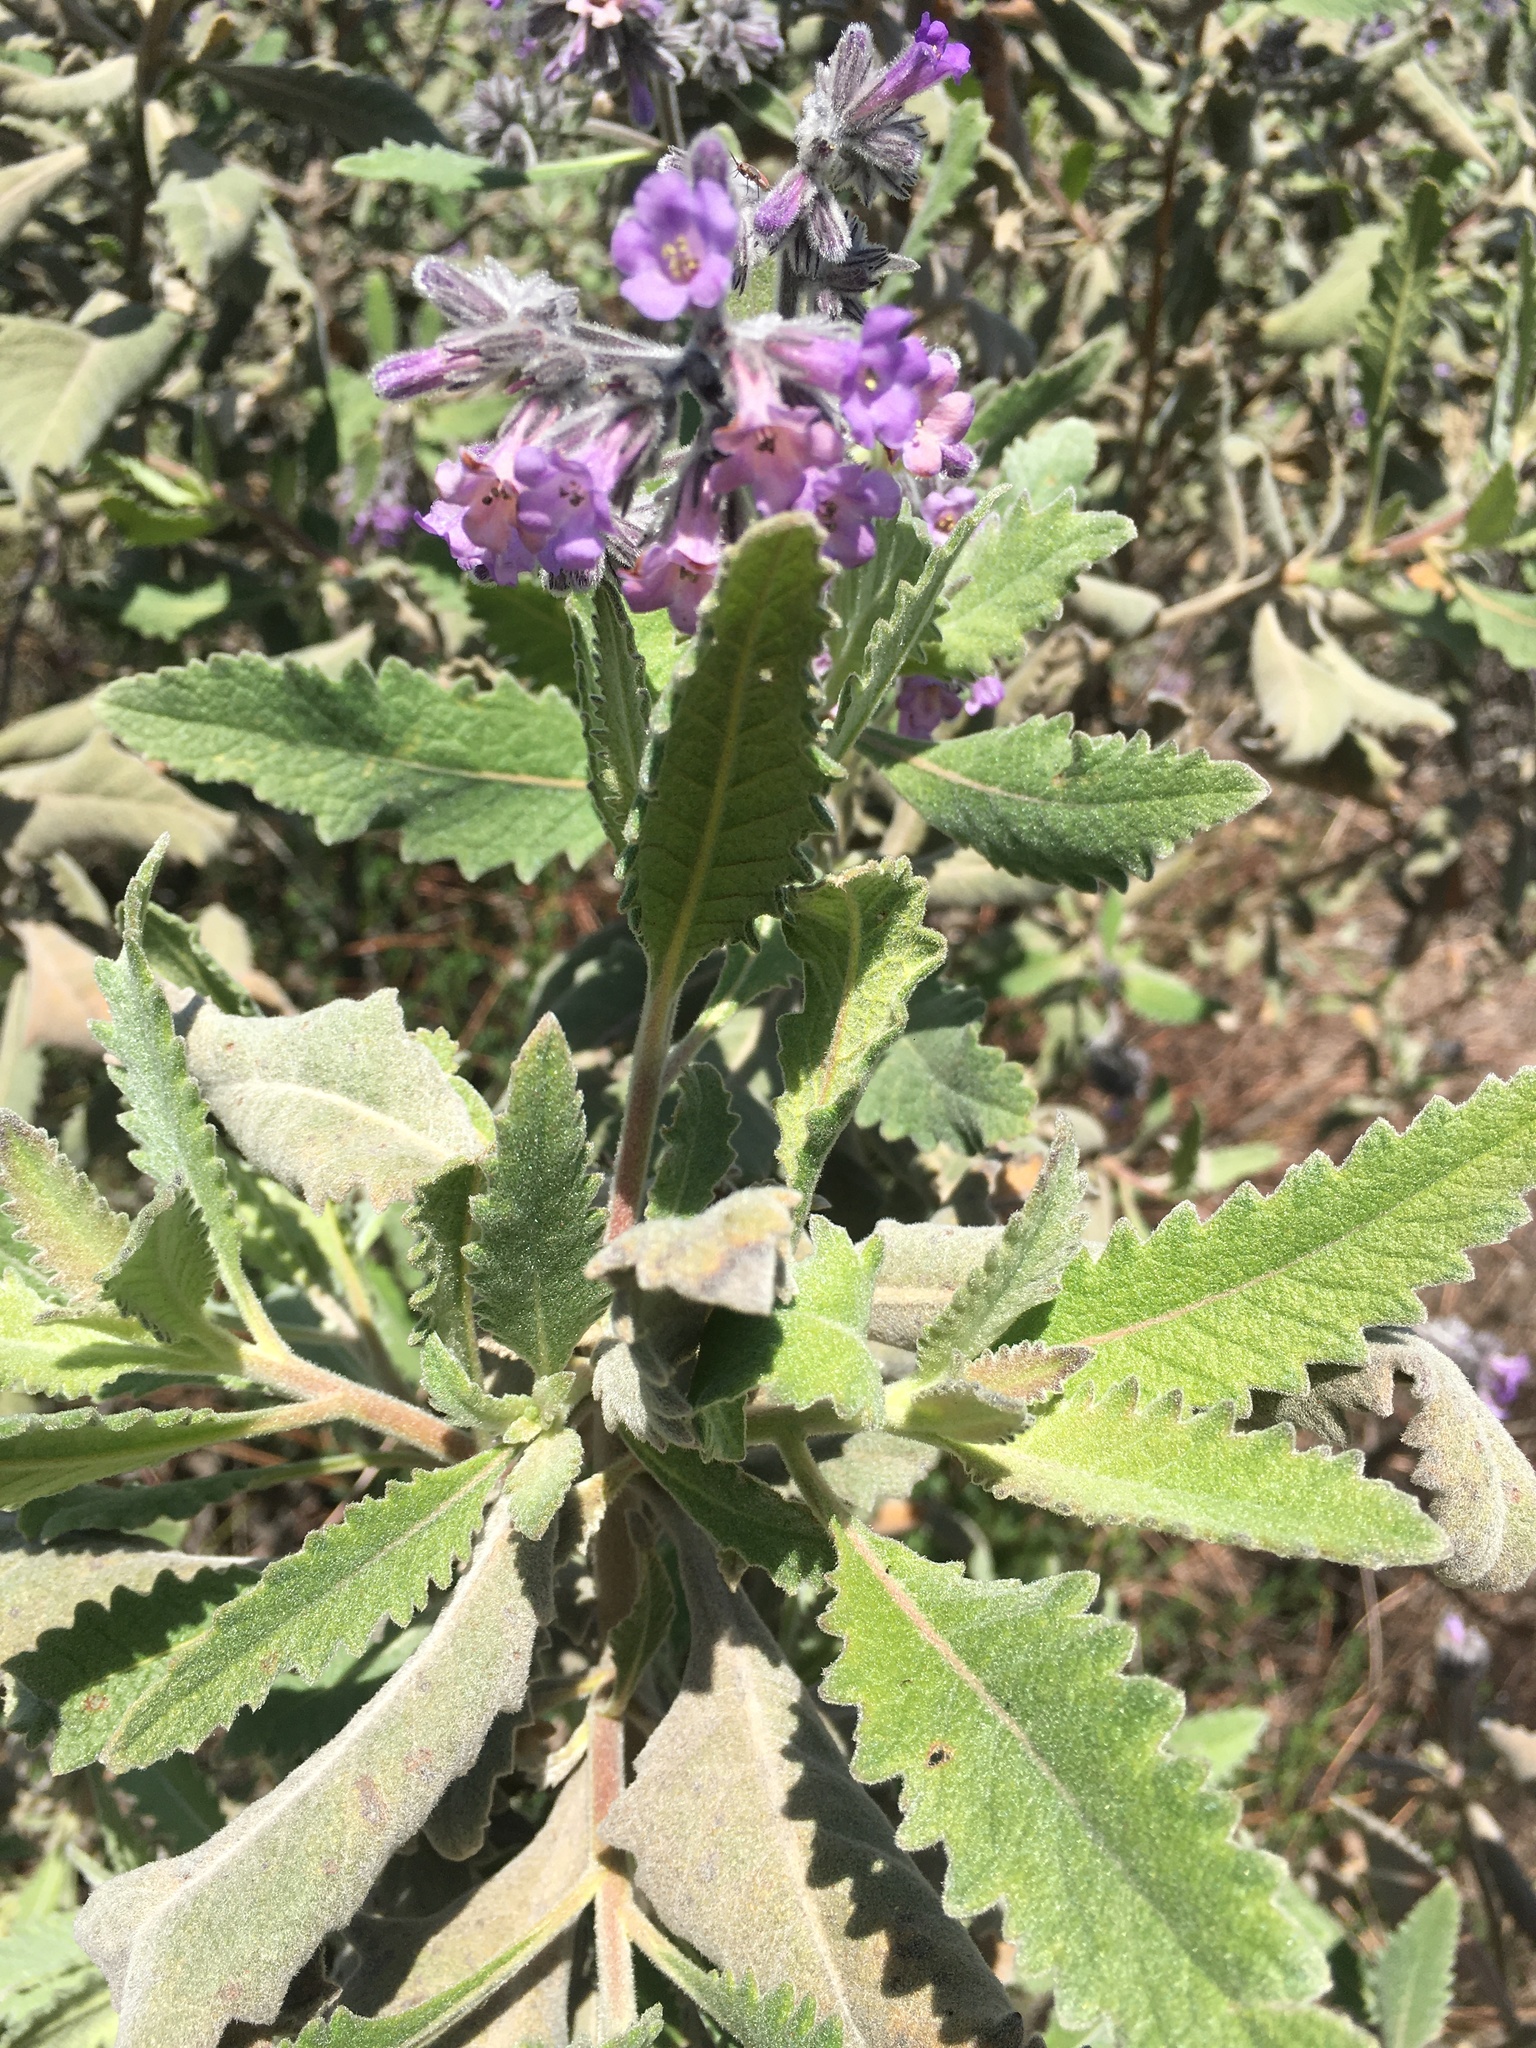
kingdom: Plantae
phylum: Tracheophyta
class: Magnoliopsida
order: Boraginales
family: Namaceae
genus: Eriodictyon
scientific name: Eriodictyon crassifolium
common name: Thick-leaf yerba-santa
